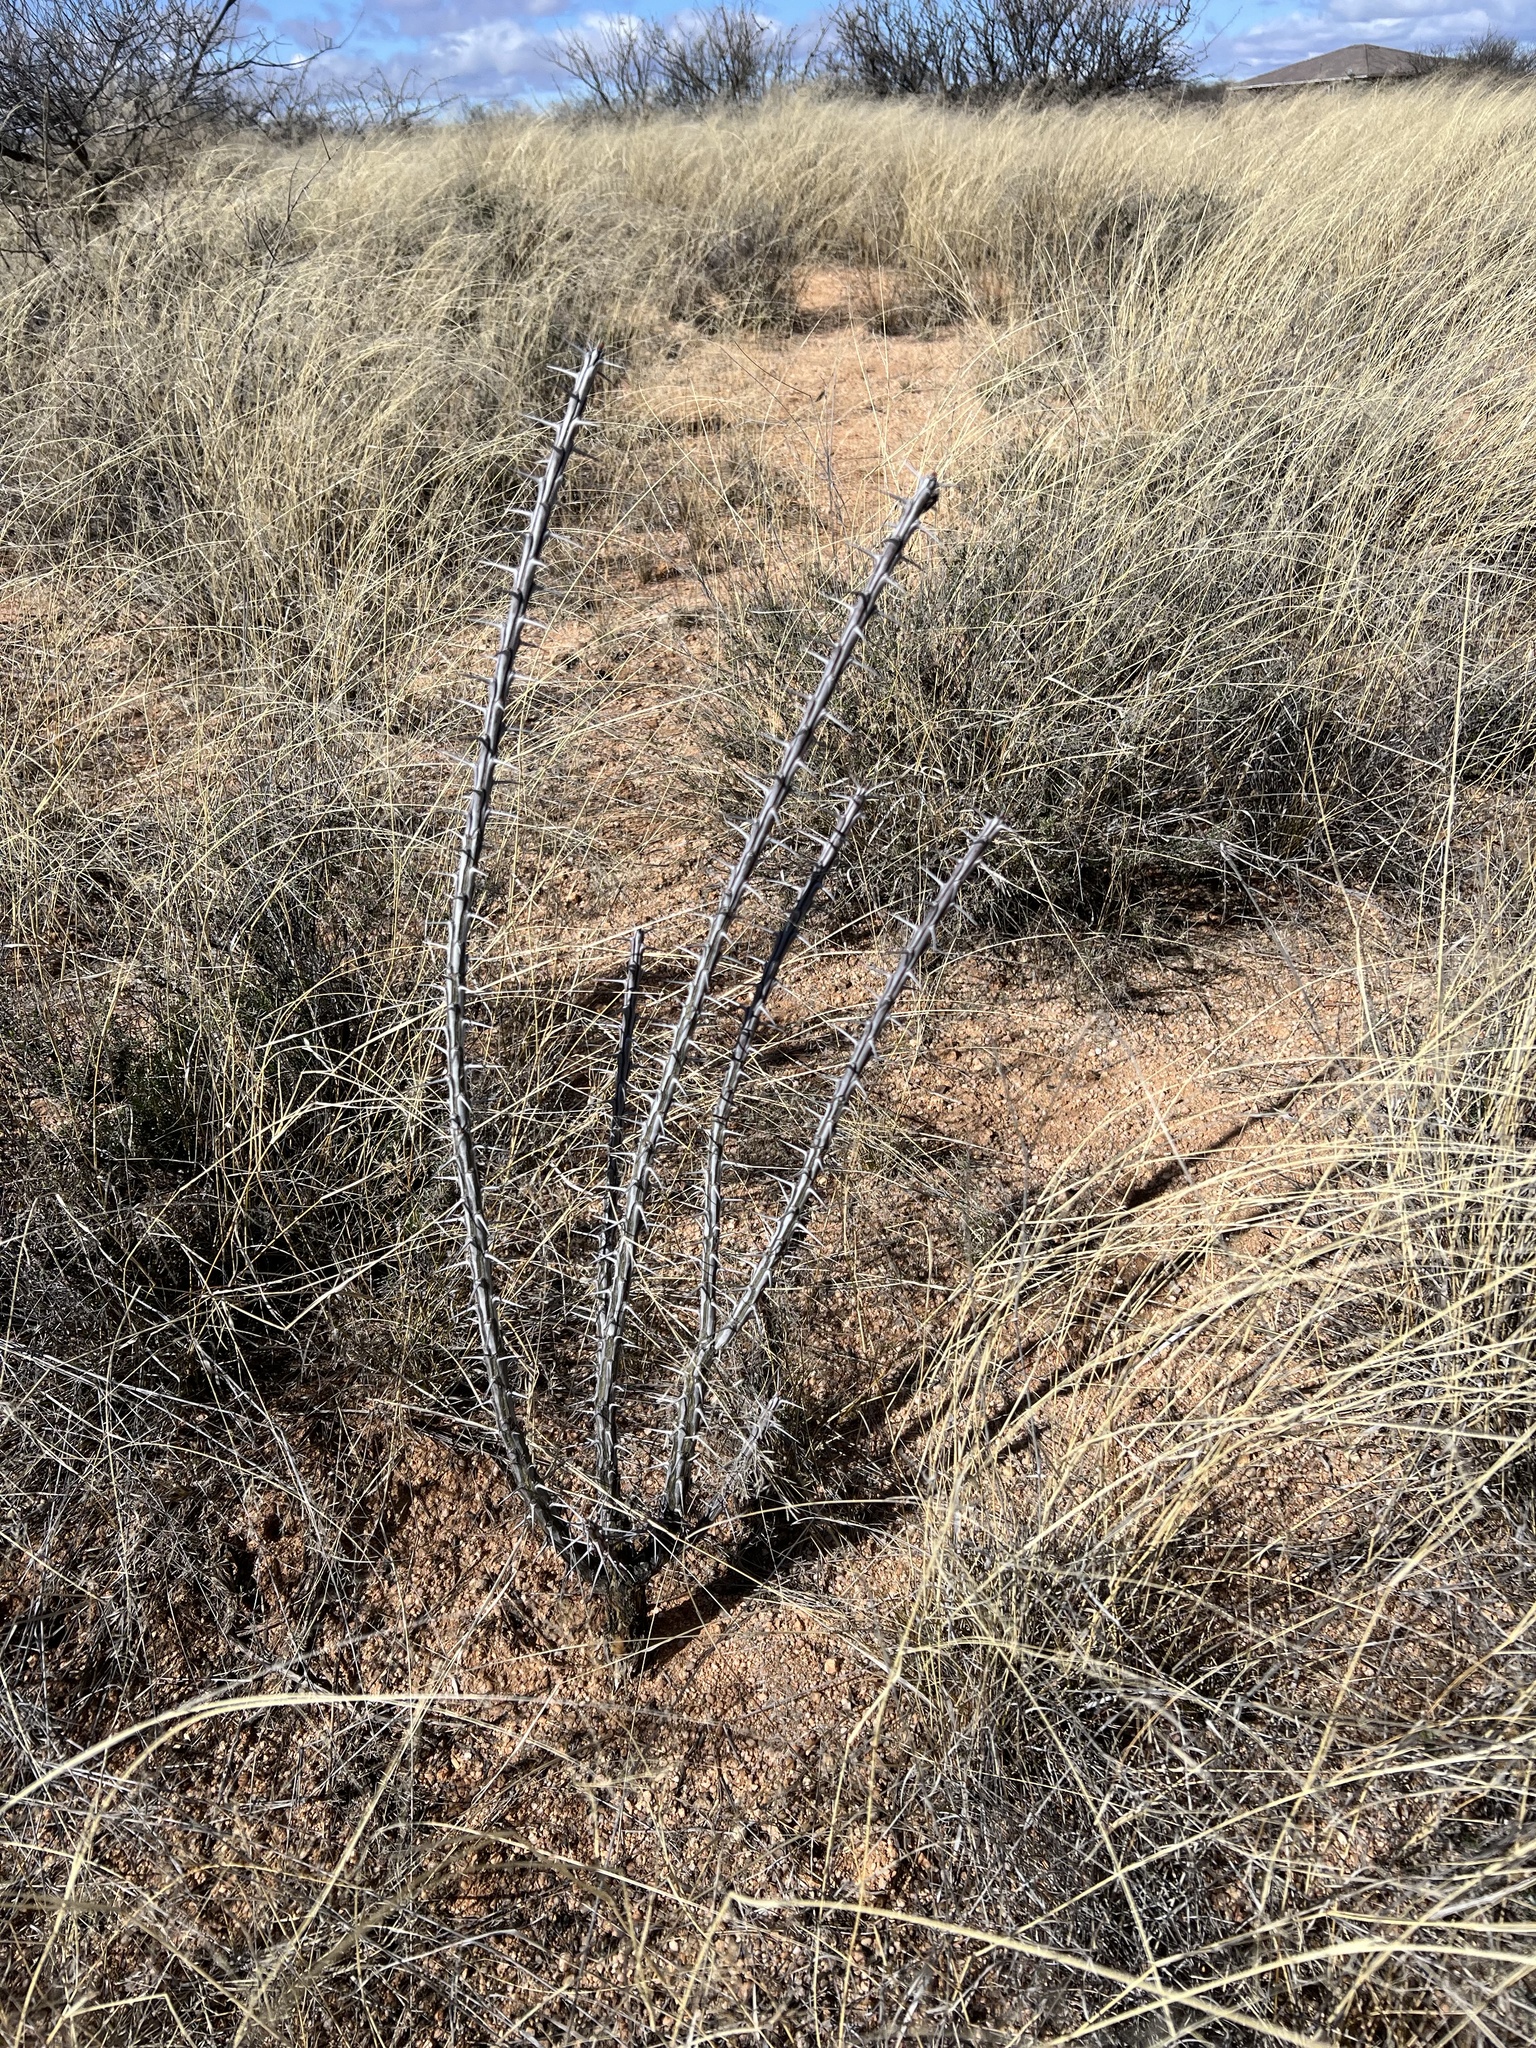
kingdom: Plantae
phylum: Tracheophyta
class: Magnoliopsida
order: Ericales
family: Fouquieriaceae
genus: Fouquieria
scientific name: Fouquieria splendens
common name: Vine-cactus
